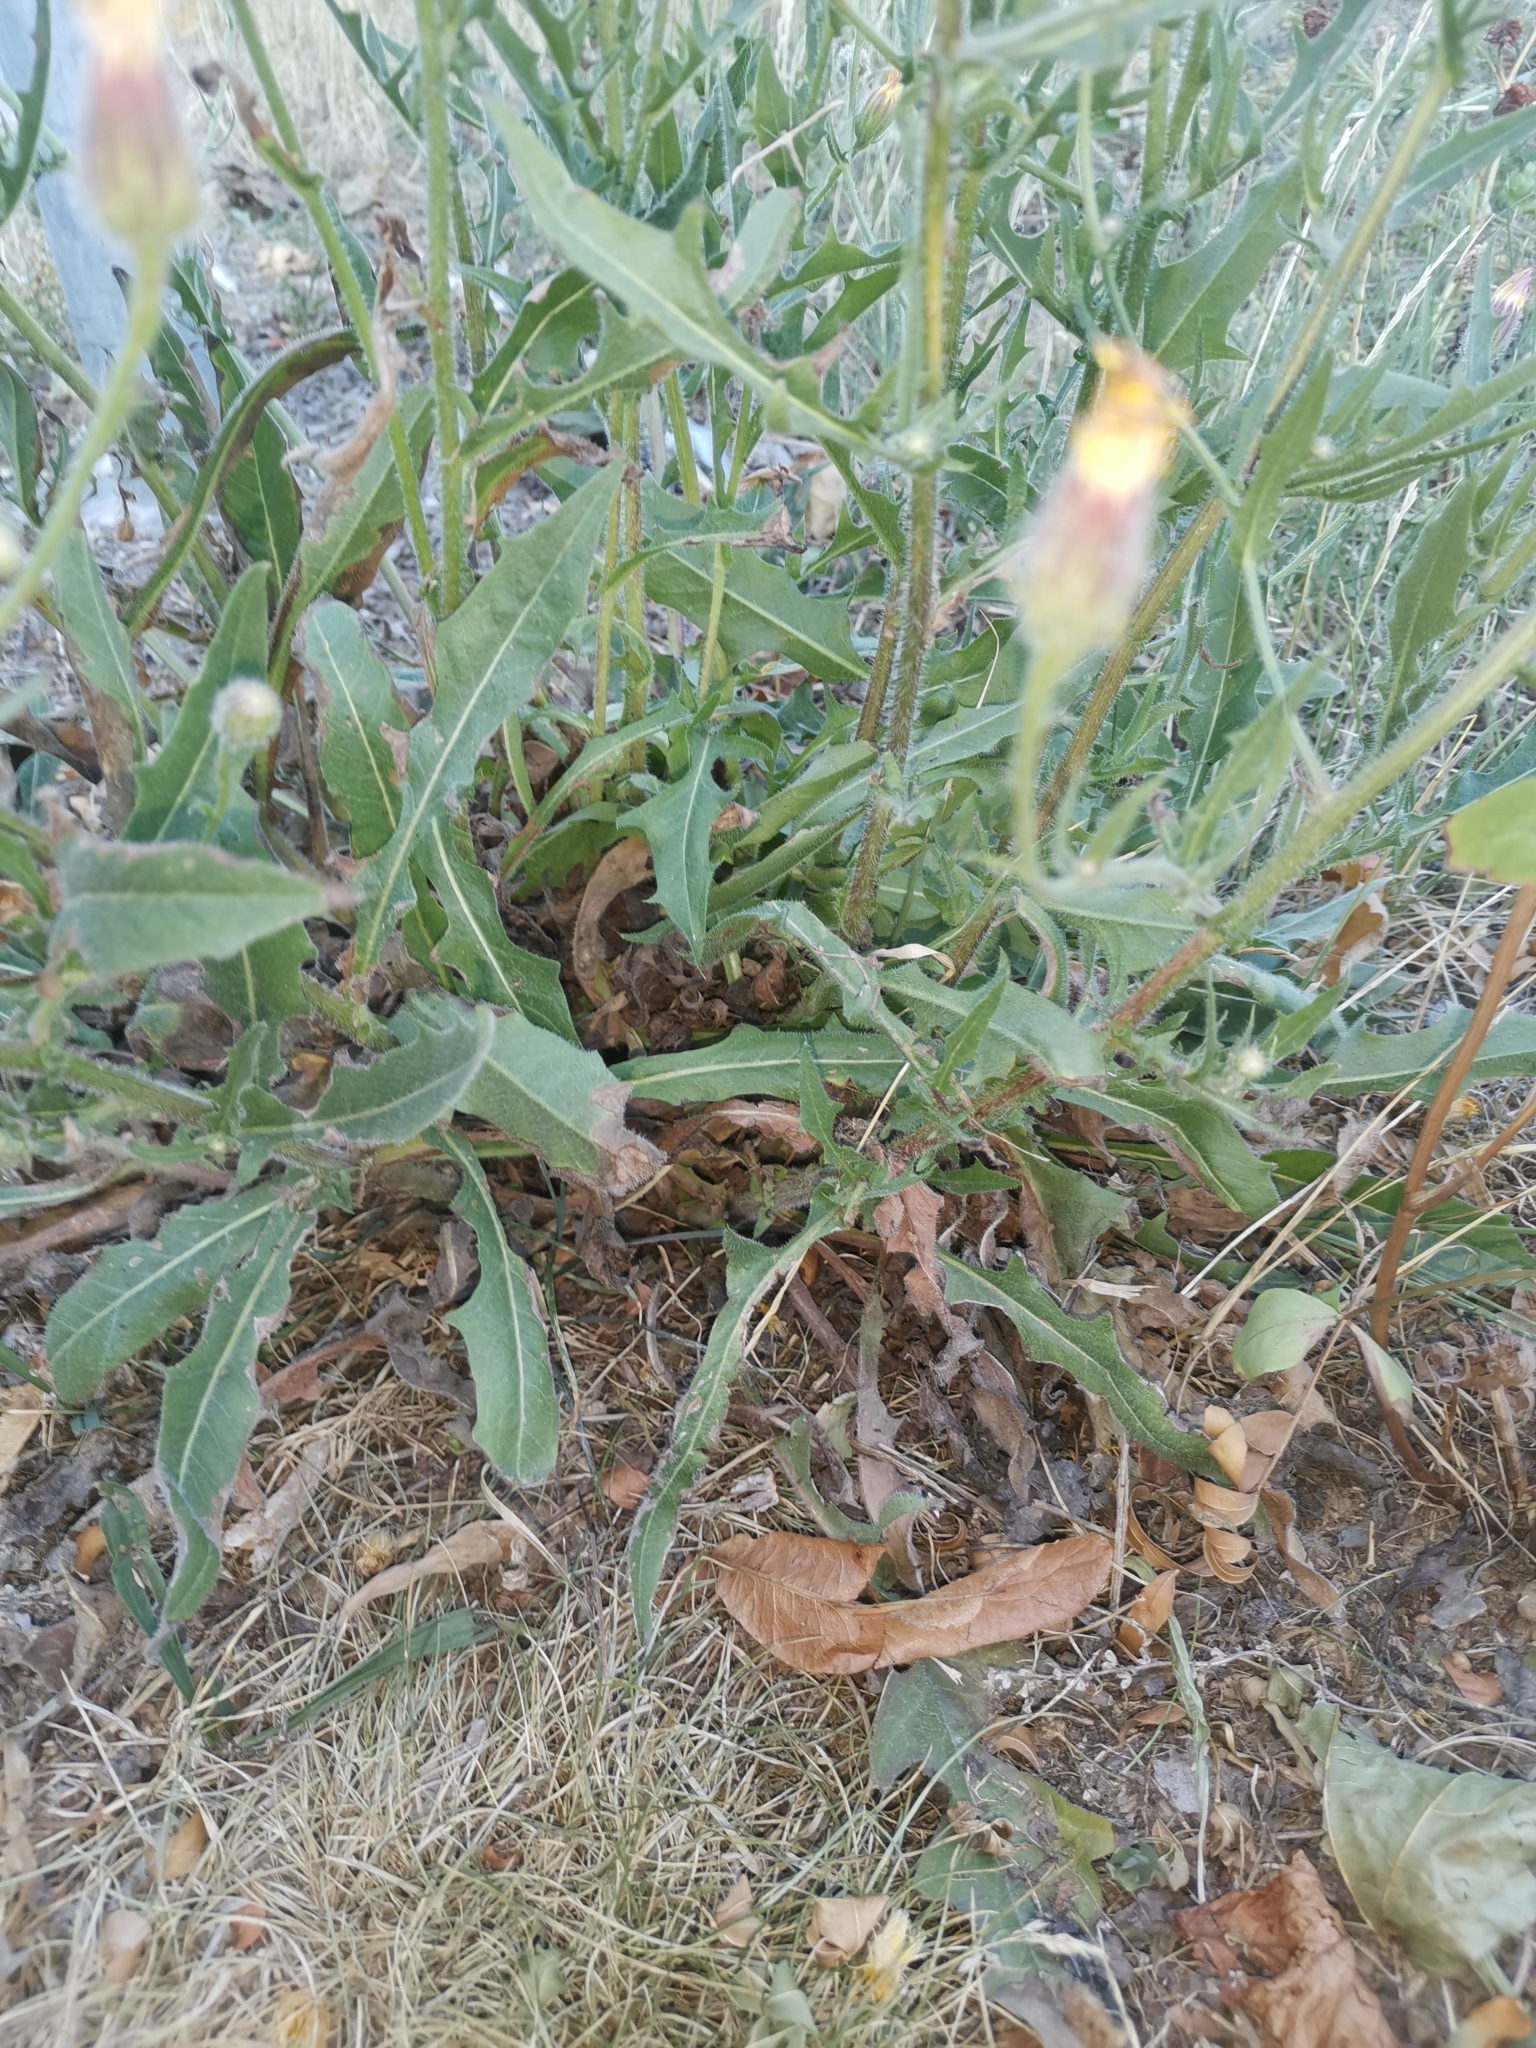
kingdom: Plantae
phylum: Tracheophyta
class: Magnoliopsida
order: Asterales
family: Asteraceae
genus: Crepis
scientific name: Crepis foetida
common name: Stinking hawk's-beard
